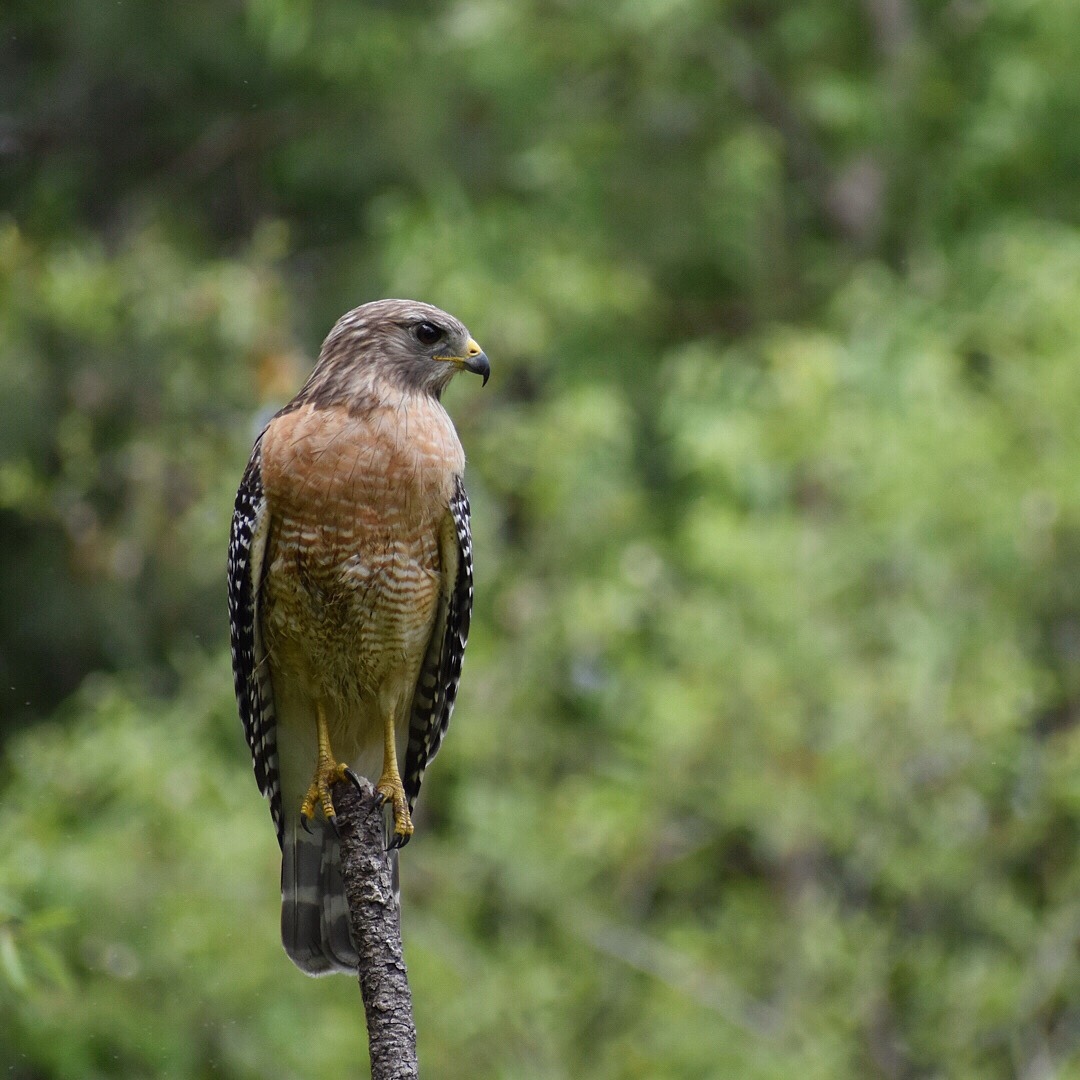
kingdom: Animalia
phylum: Chordata
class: Aves
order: Accipitriformes
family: Accipitridae
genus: Buteo
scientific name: Buteo lineatus
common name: Red-shouldered hawk
